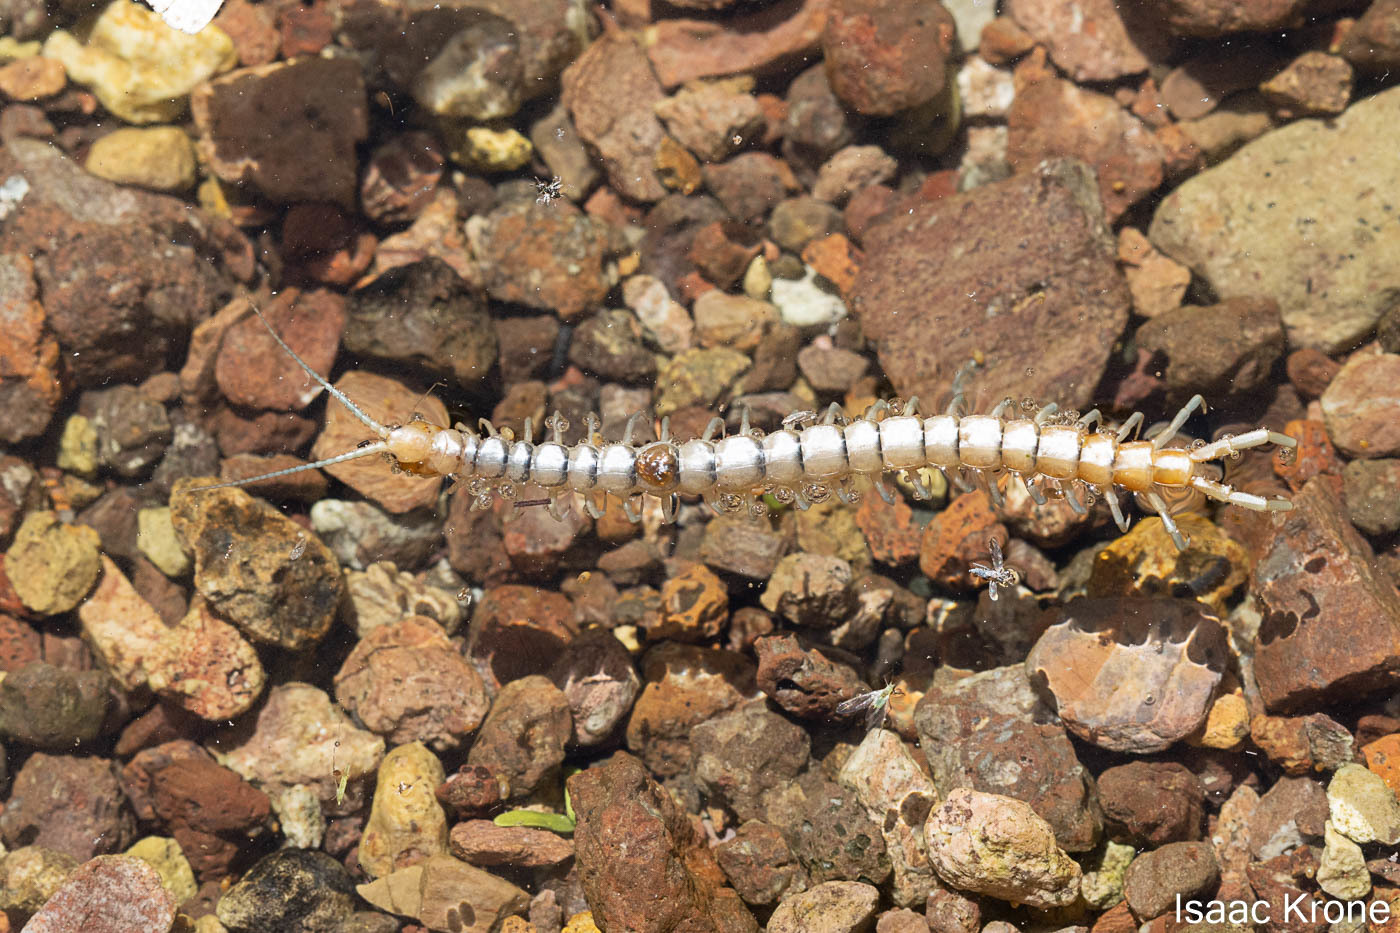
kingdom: Animalia
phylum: Arthropoda
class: Chilopoda
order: Scolopendromorpha
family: Scolopendridae
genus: Scolopendra
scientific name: Scolopendra polymorpha
